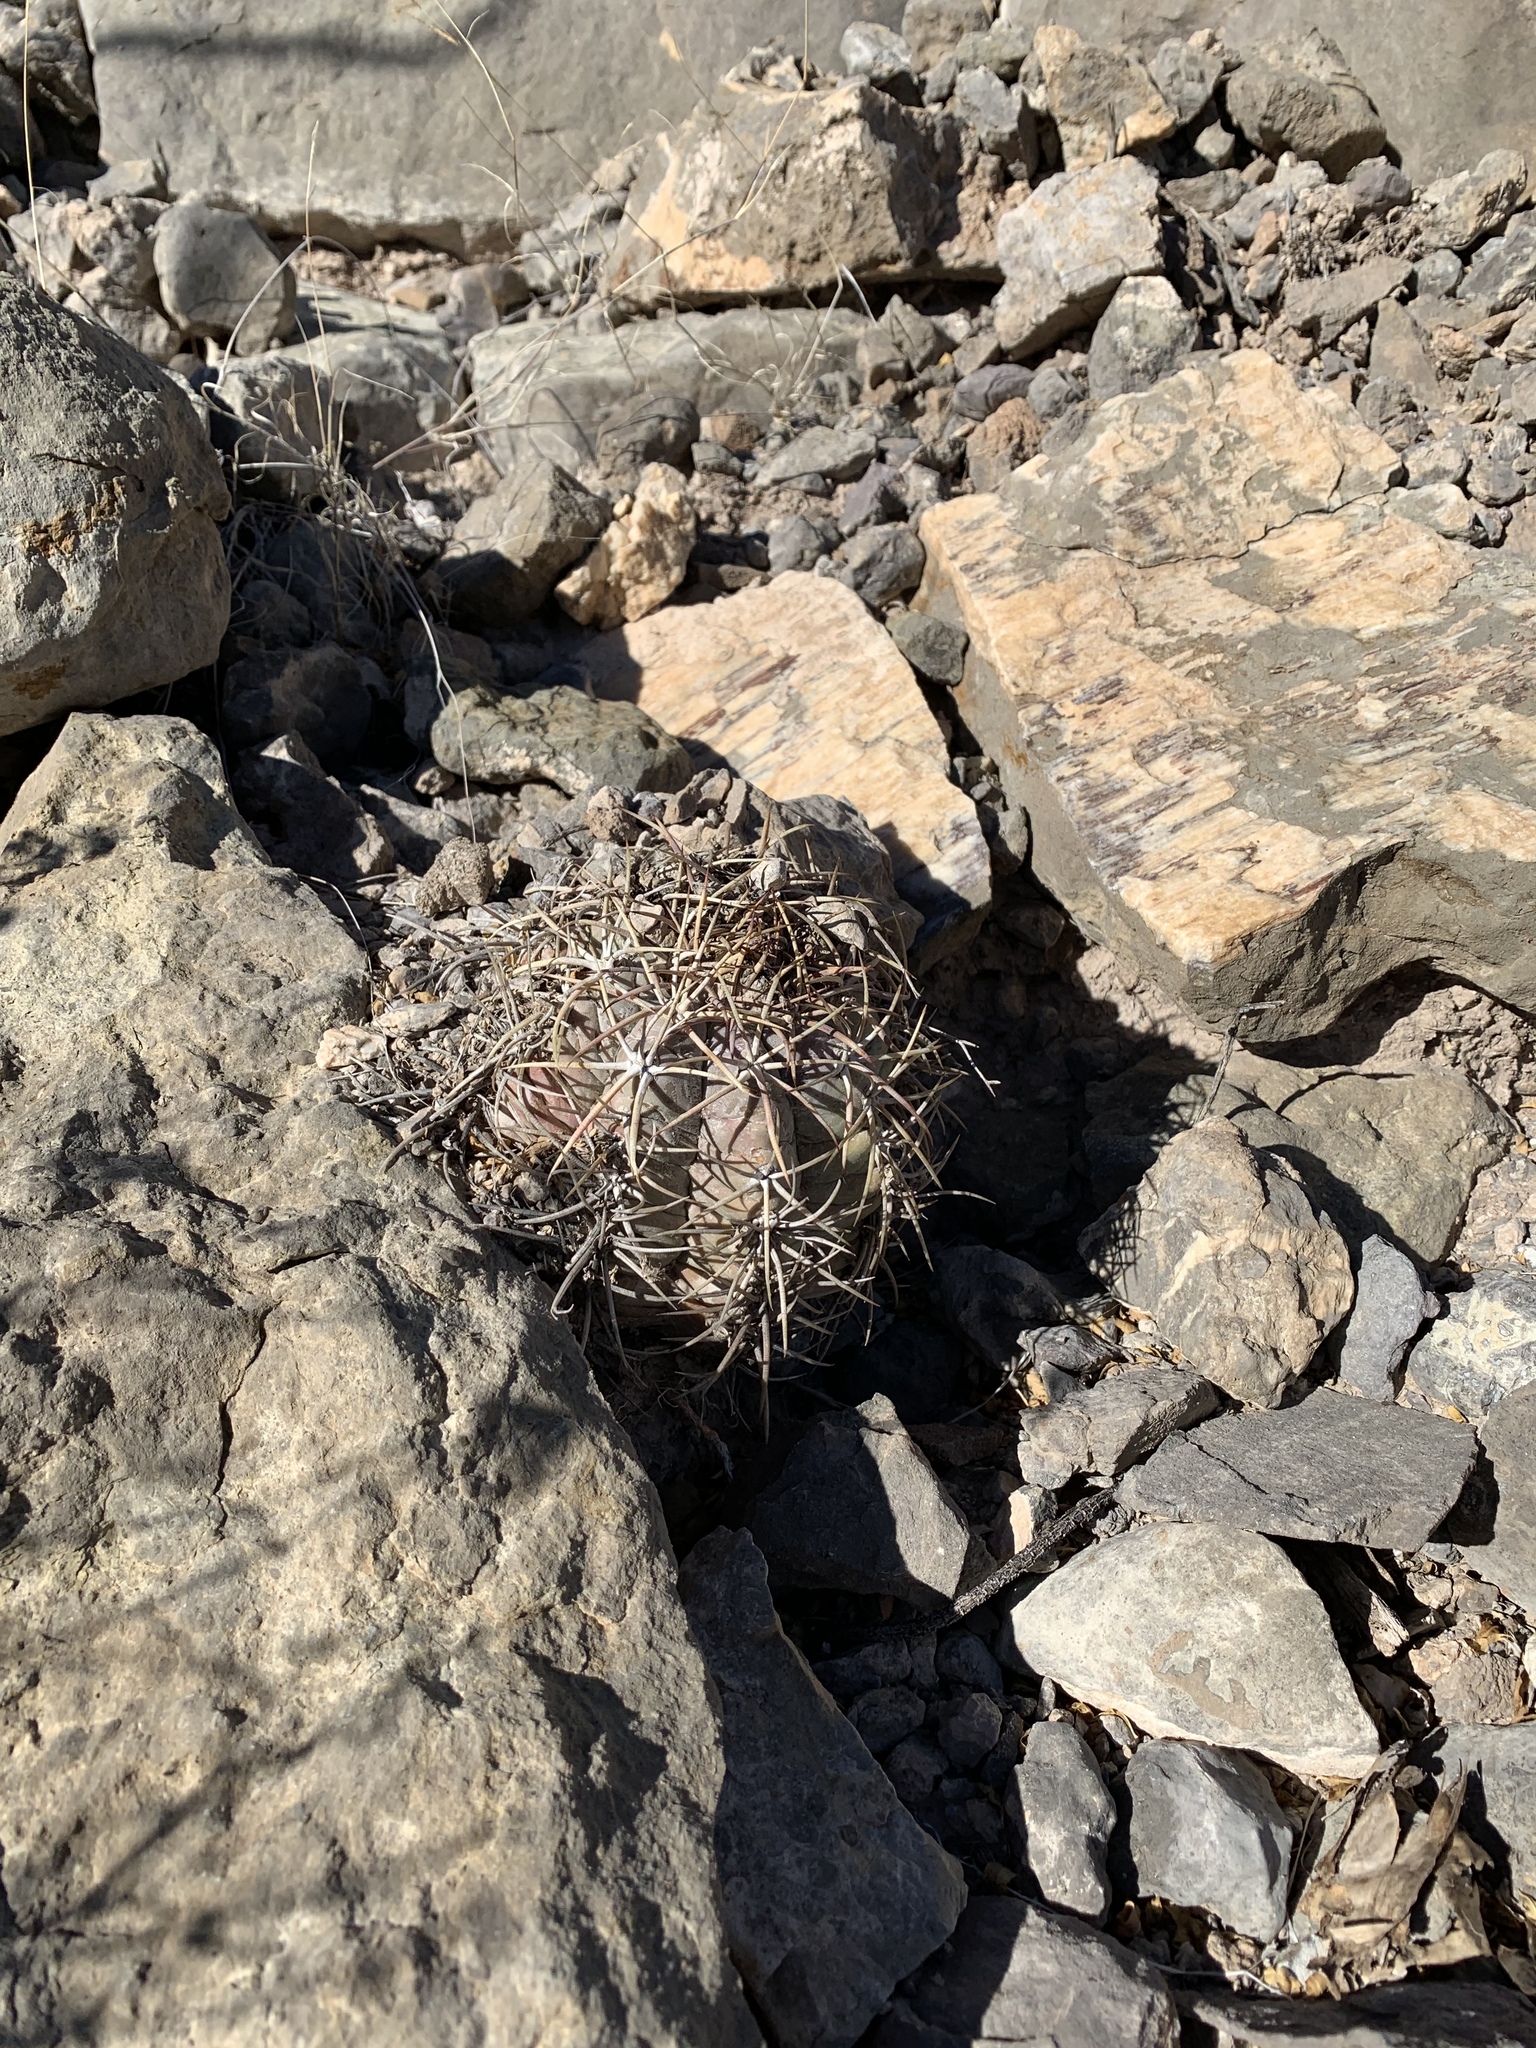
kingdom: Plantae
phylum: Tracheophyta
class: Magnoliopsida
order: Caryophyllales
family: Cactaceae
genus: Echinocactus
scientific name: Echinocactus horizonthalonius
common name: Devilshead
